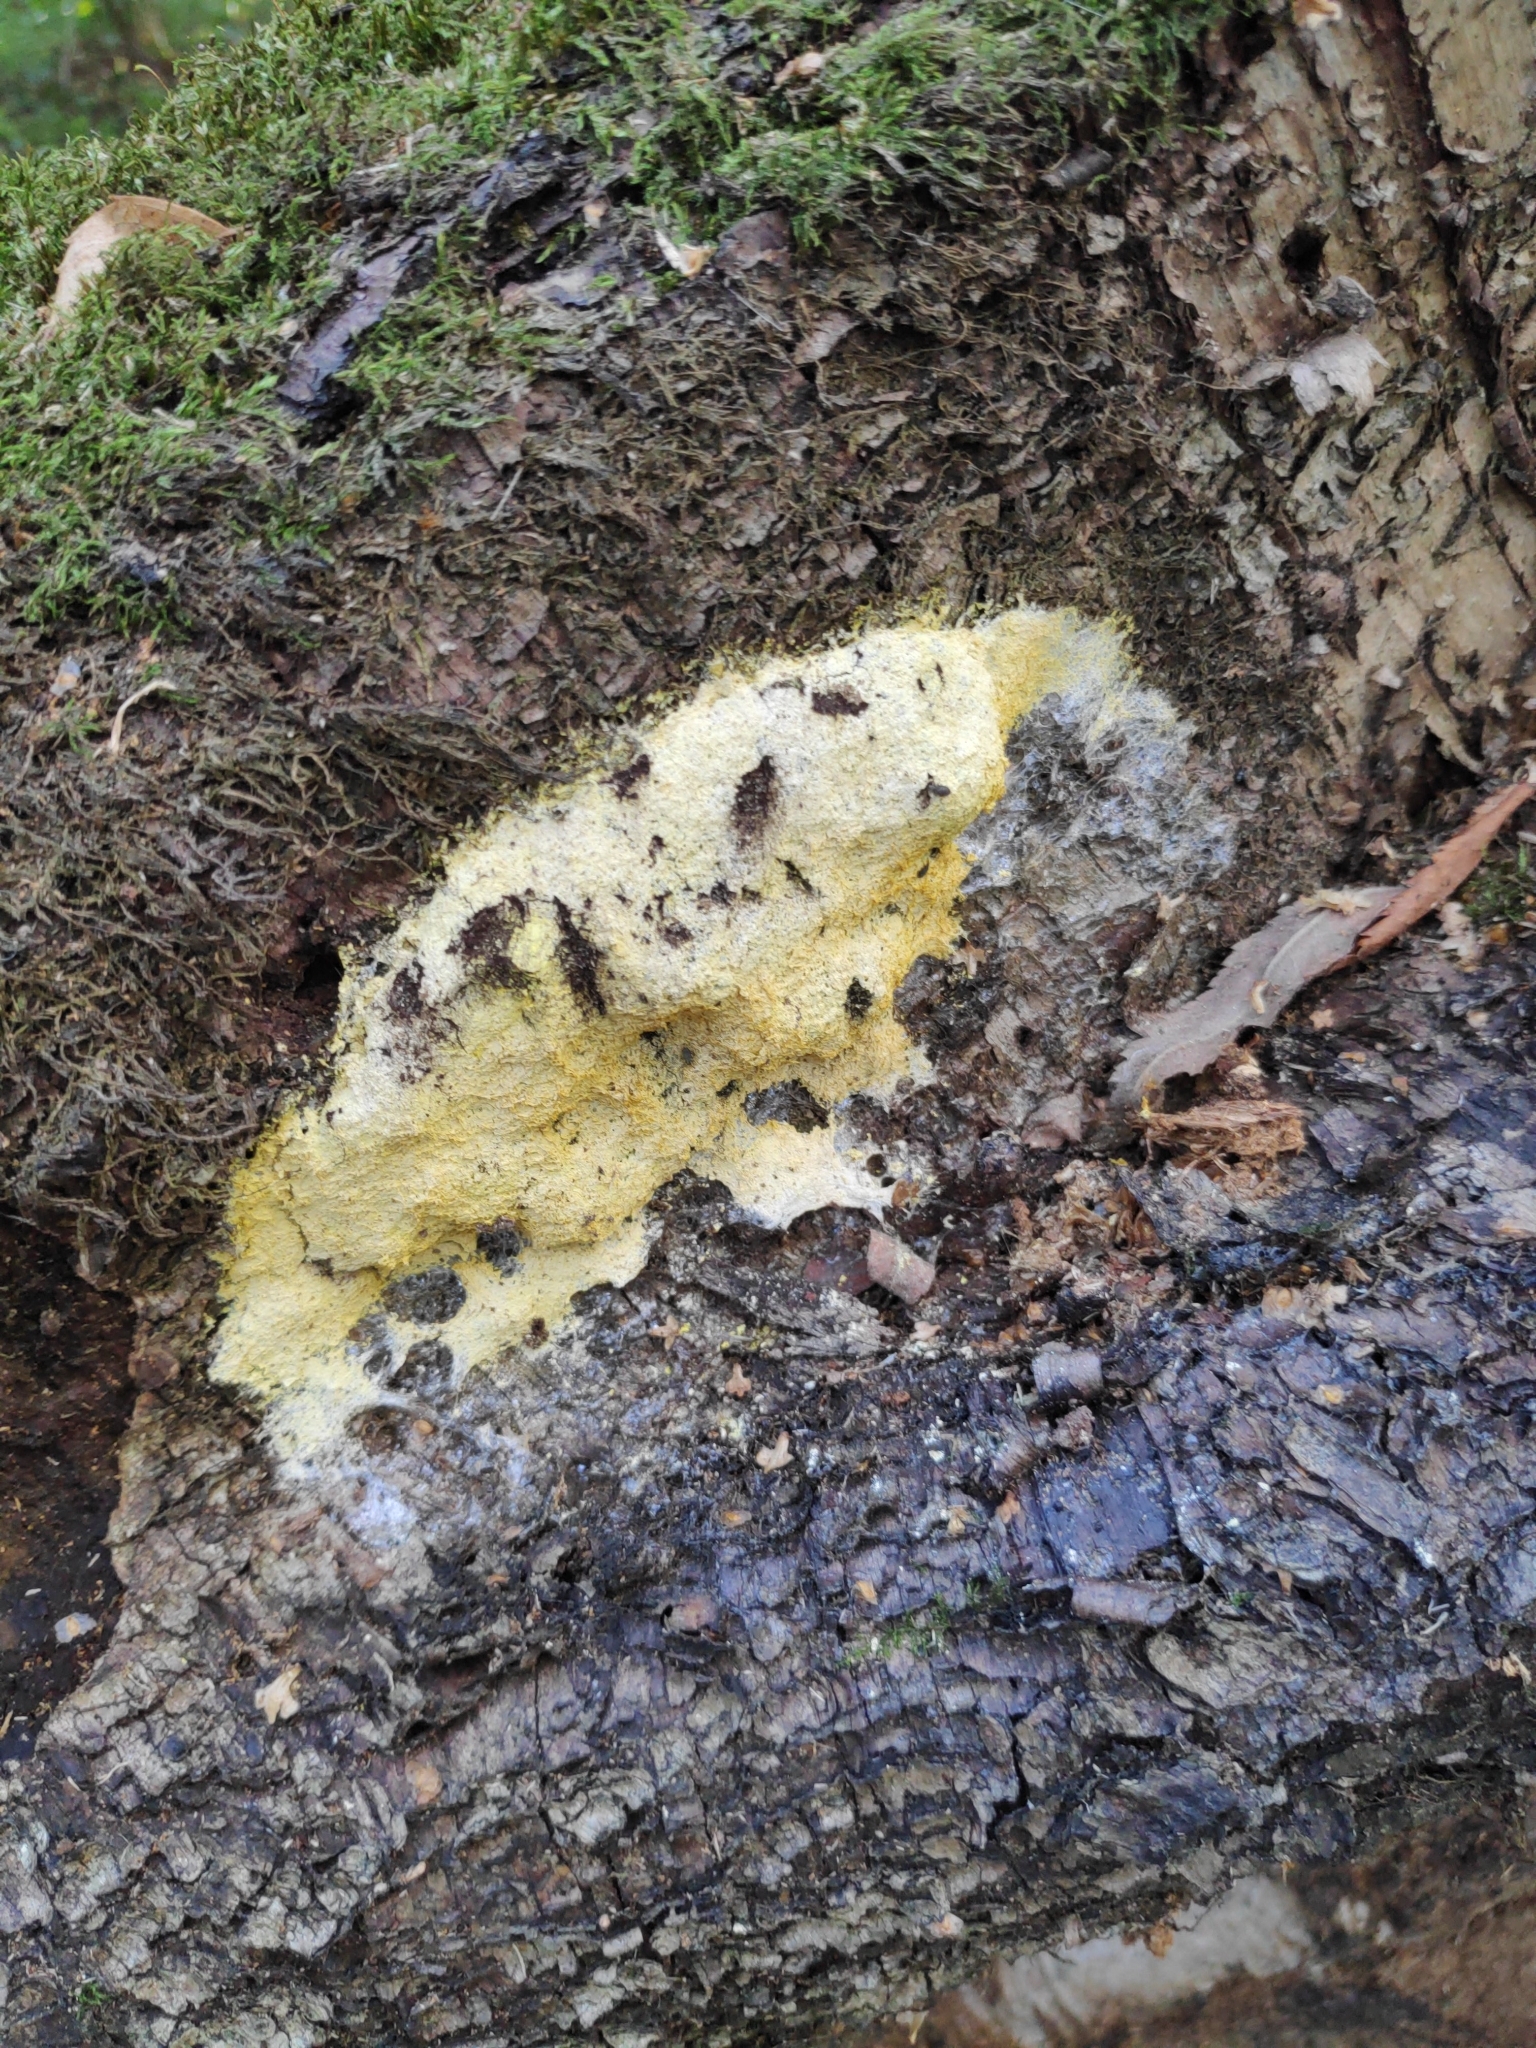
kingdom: Protozoa
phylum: Mycetozoa
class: Myxomycetes
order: Physarales
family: Physaraceae
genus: Fuligo
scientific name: Fuligo septica
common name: Dog vomit slime mold
